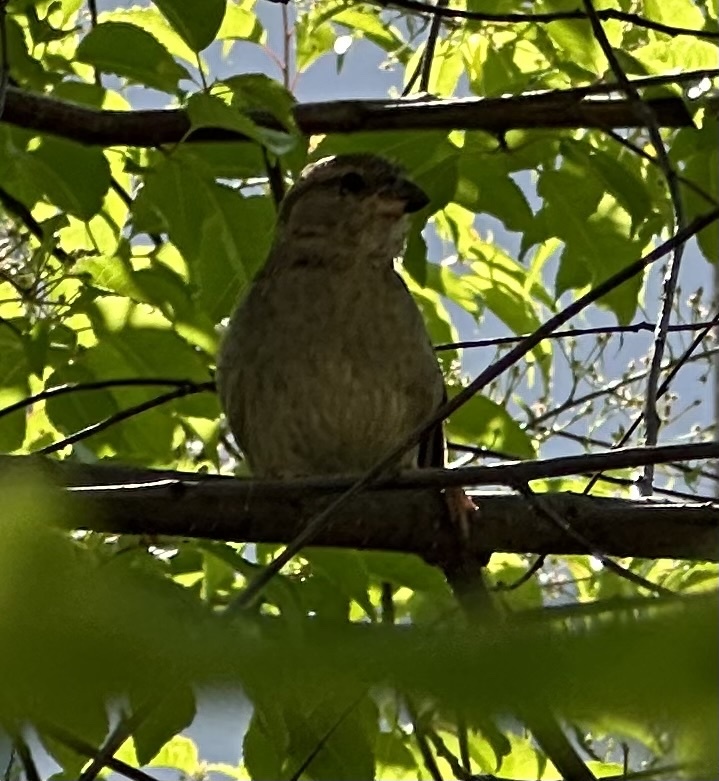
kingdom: Animalia
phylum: Chordata
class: Aves
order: Passeriformes
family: Passeridae
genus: Passer
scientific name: Passer domesticus
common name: House sparrow
